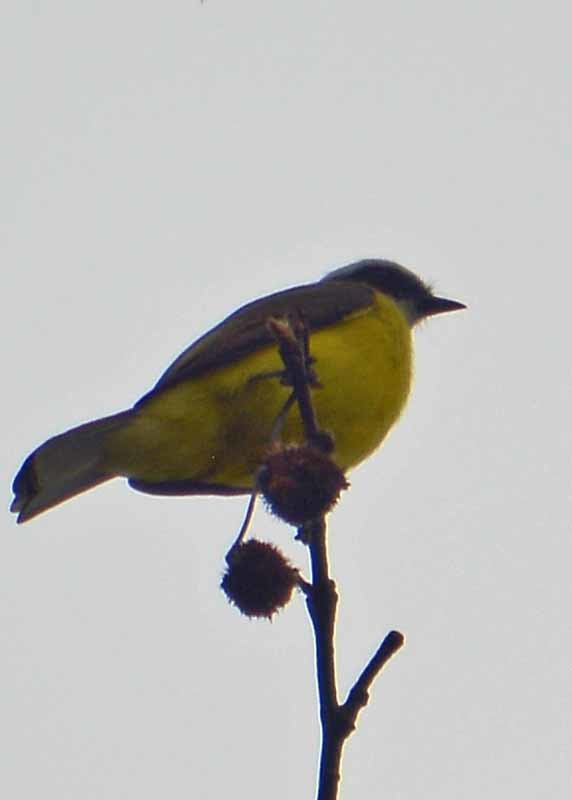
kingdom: Animalia
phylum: Chordata
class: Aves
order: Passeriformes
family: Tyrannidae
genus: Myiozetetes
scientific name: Myiozetetes similis
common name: Social flycatcher
